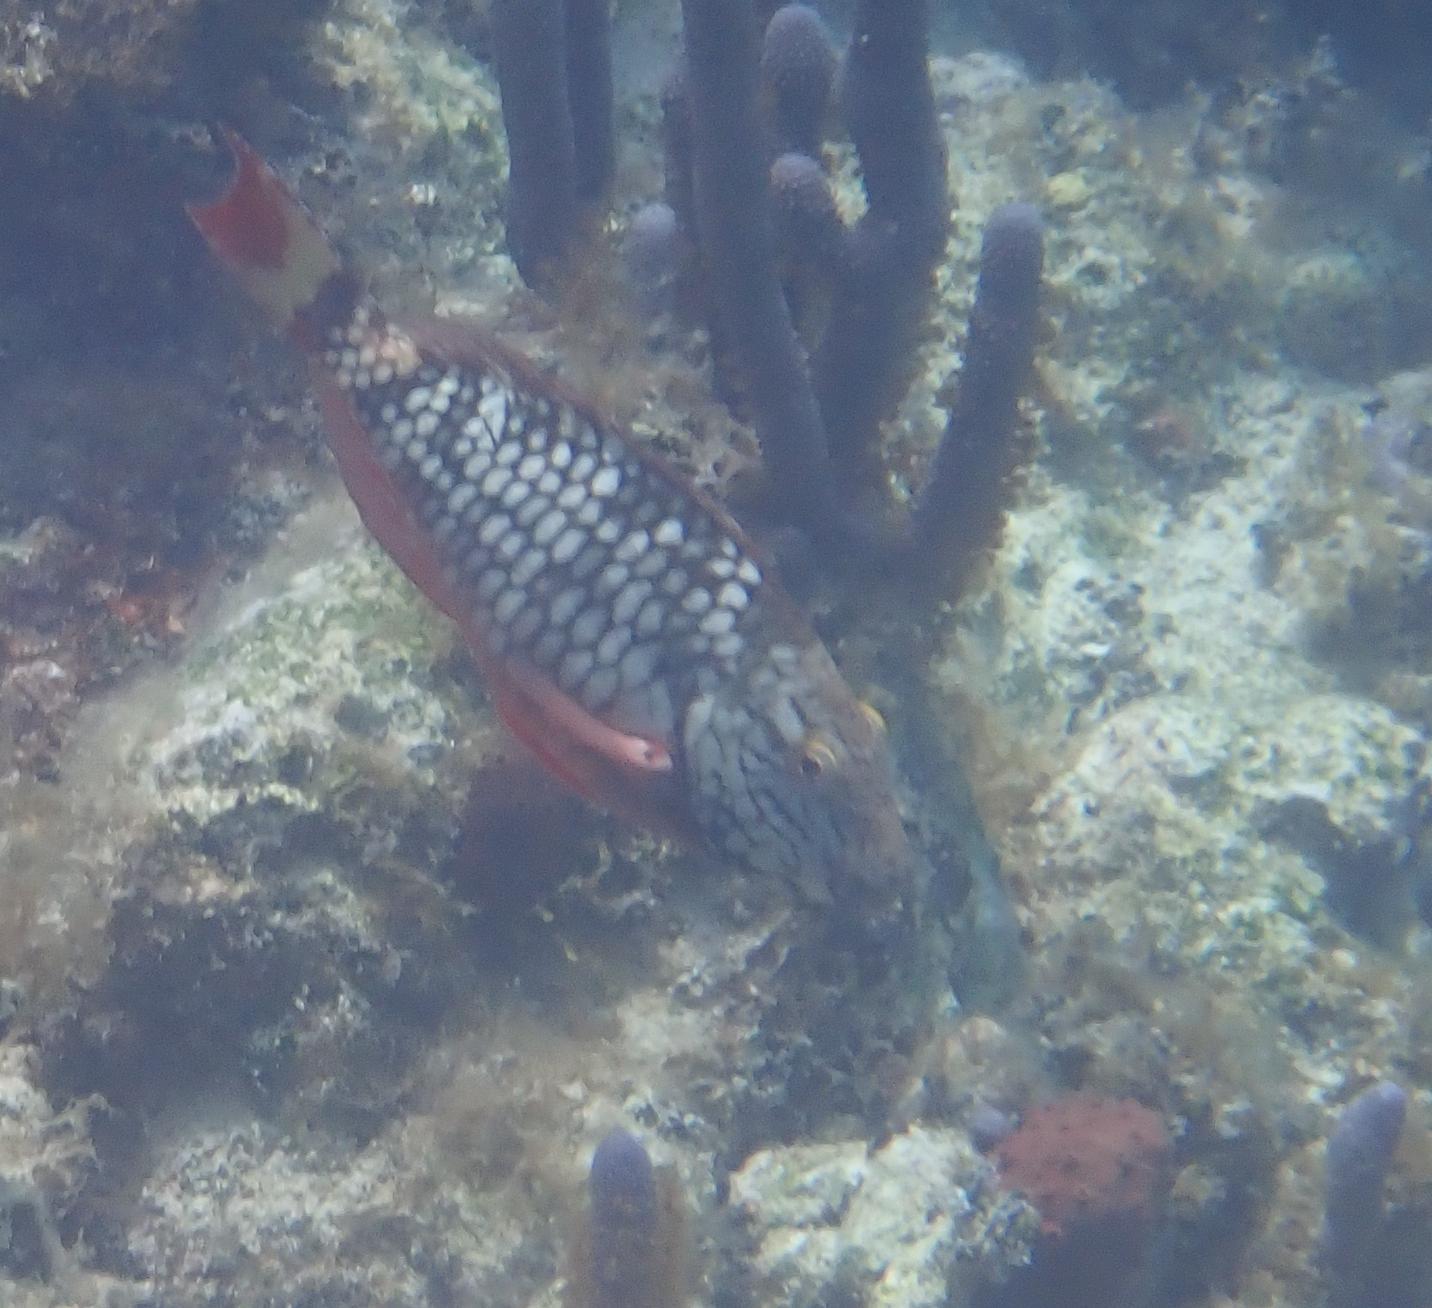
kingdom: Animalia
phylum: Chordata
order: Perciformes
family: Scaridae
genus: Sparisoma
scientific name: Sparisoma viride
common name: Stoplight parrotfish
